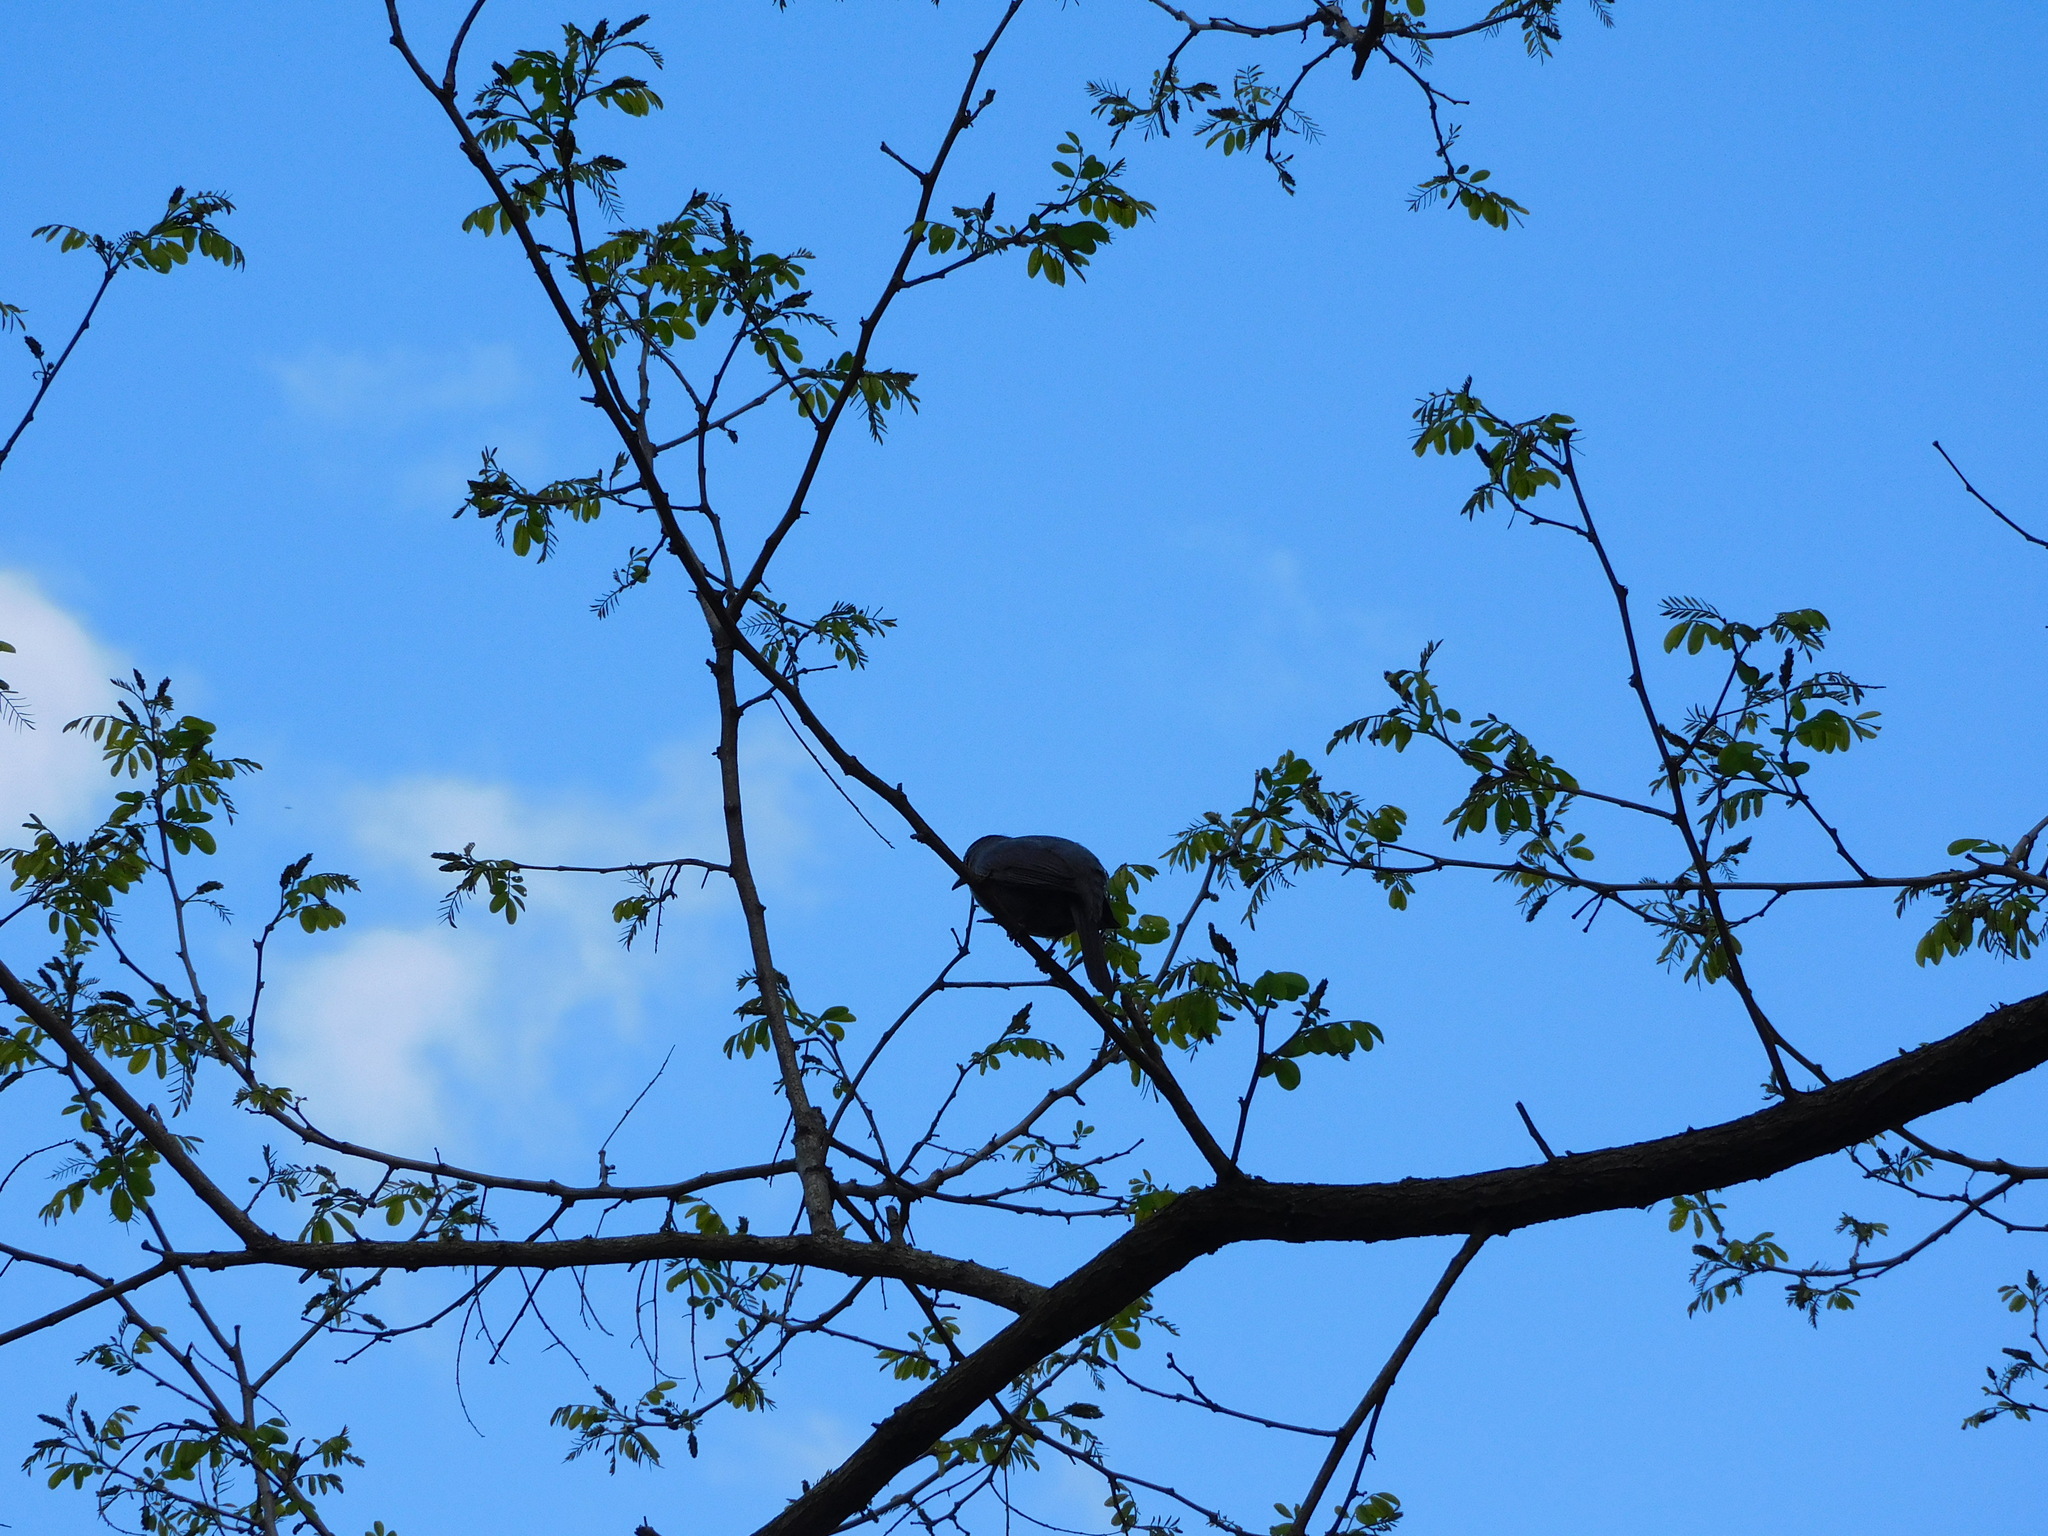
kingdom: Animalia
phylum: Chordata
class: Aves
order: Passeriformes
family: Mimidae
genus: Dumetella
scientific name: Dumetella carolinensis
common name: Gray catbird
